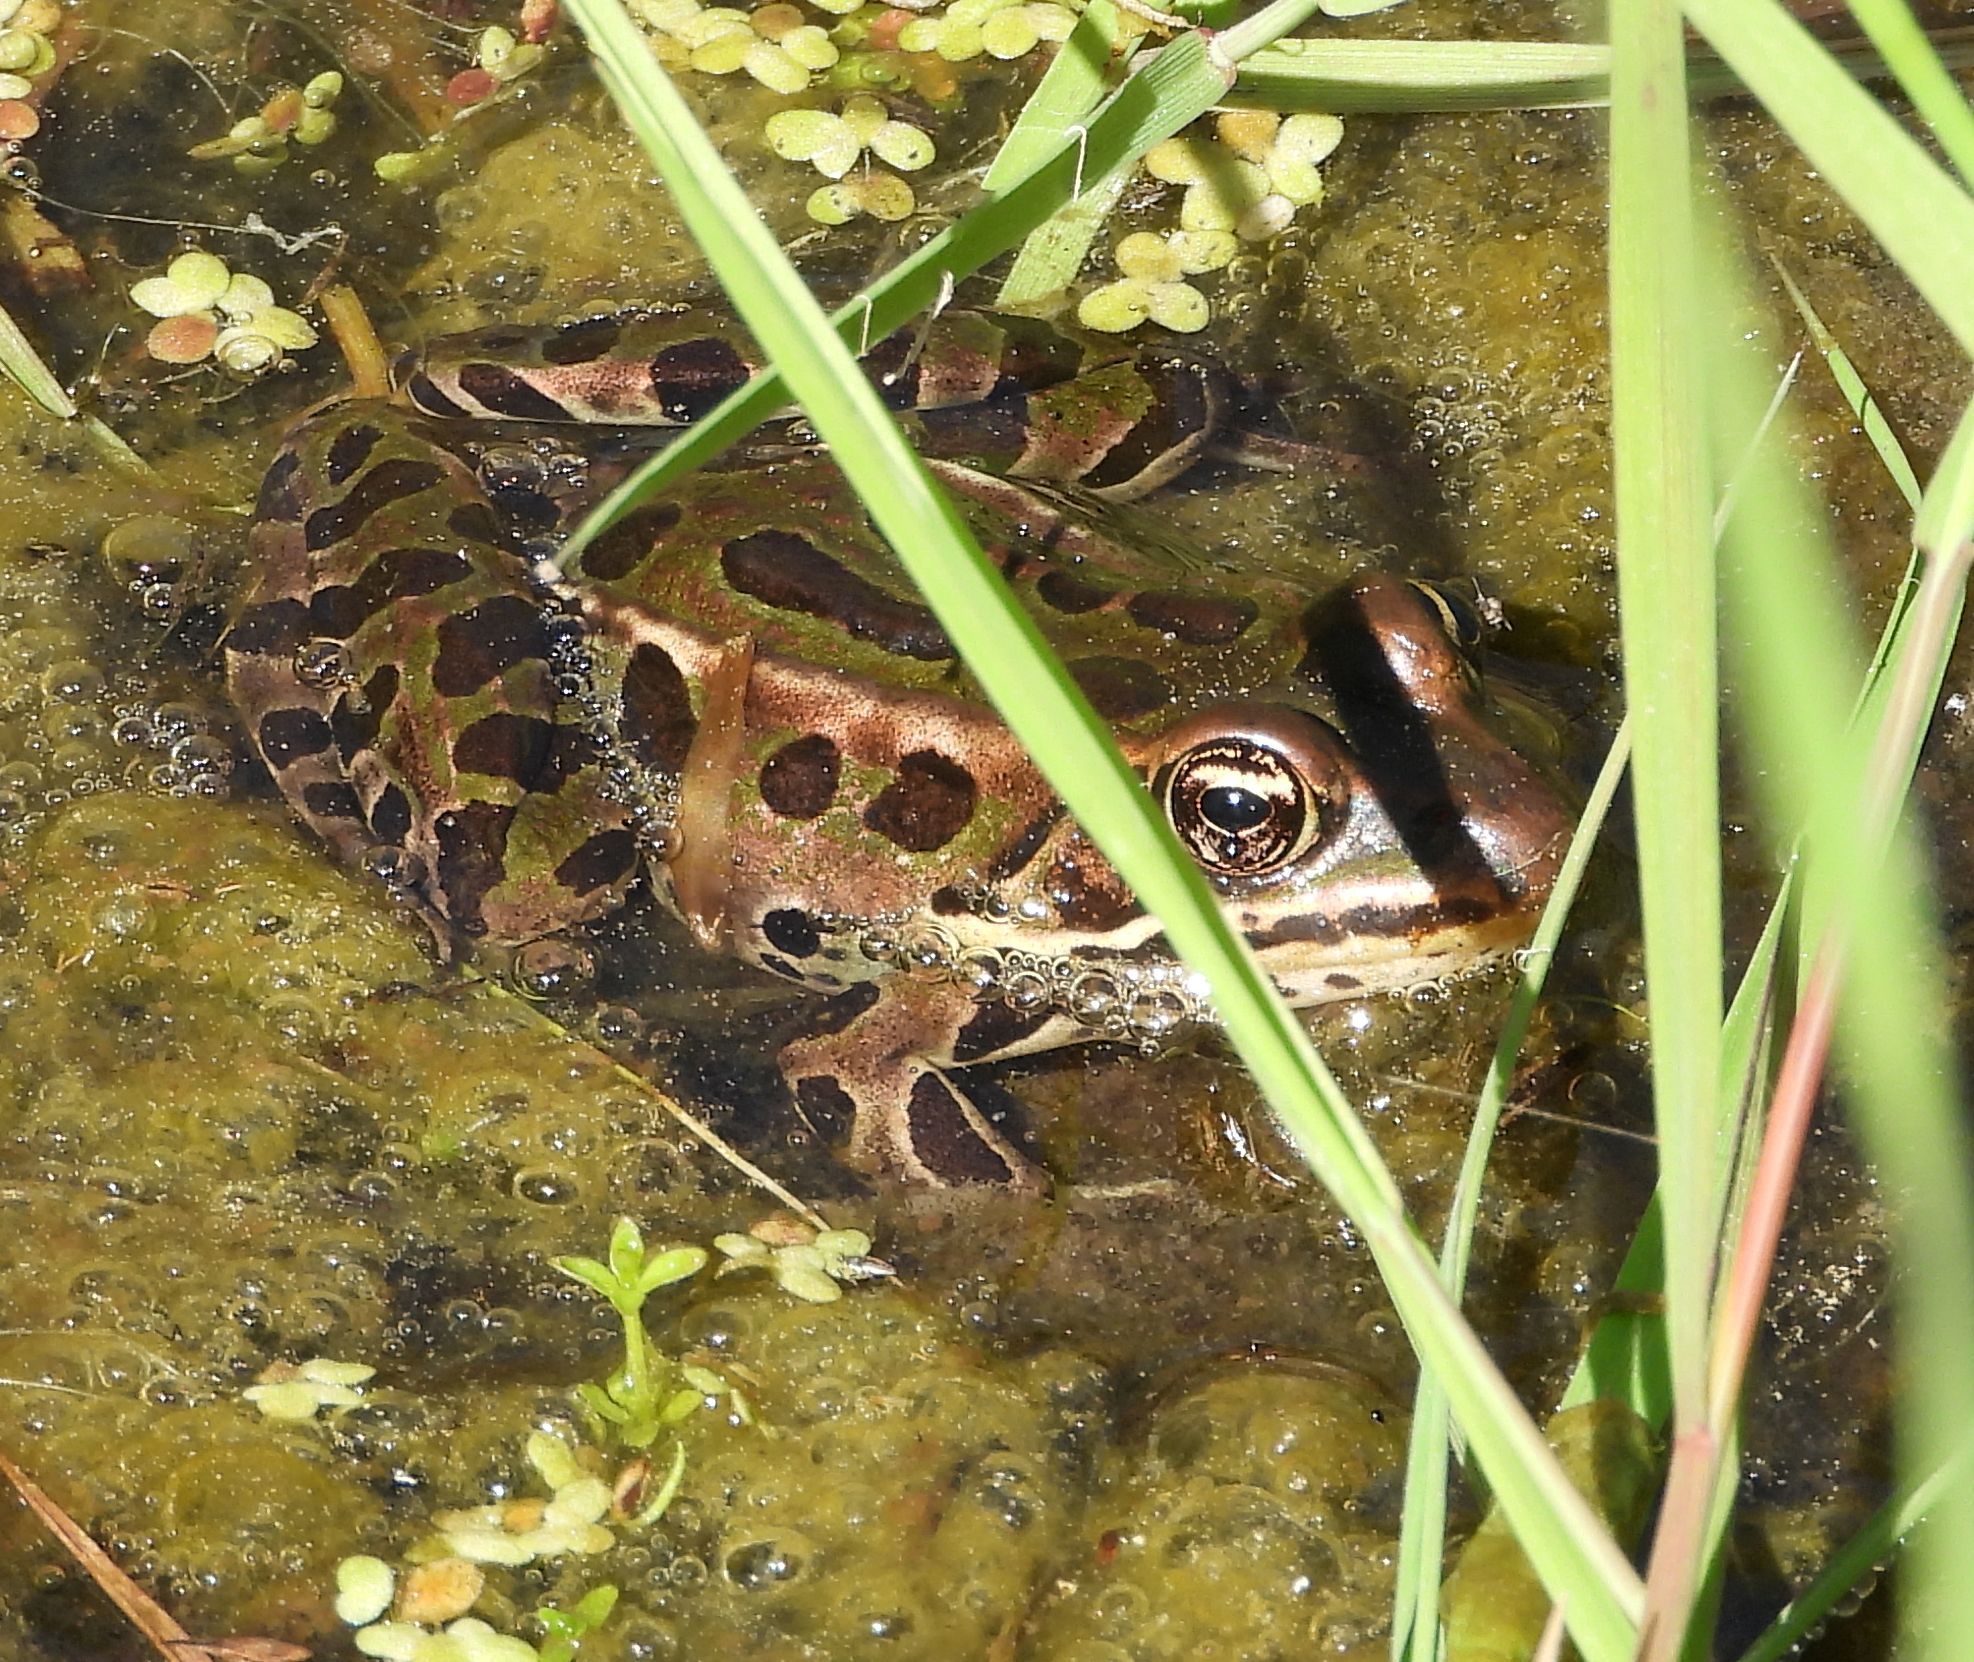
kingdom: Animalia
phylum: Chordata
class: Amphibia
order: Anura
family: Ranidae
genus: Lithobates
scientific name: Lithobates pipiens
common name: Northern leopard frog
